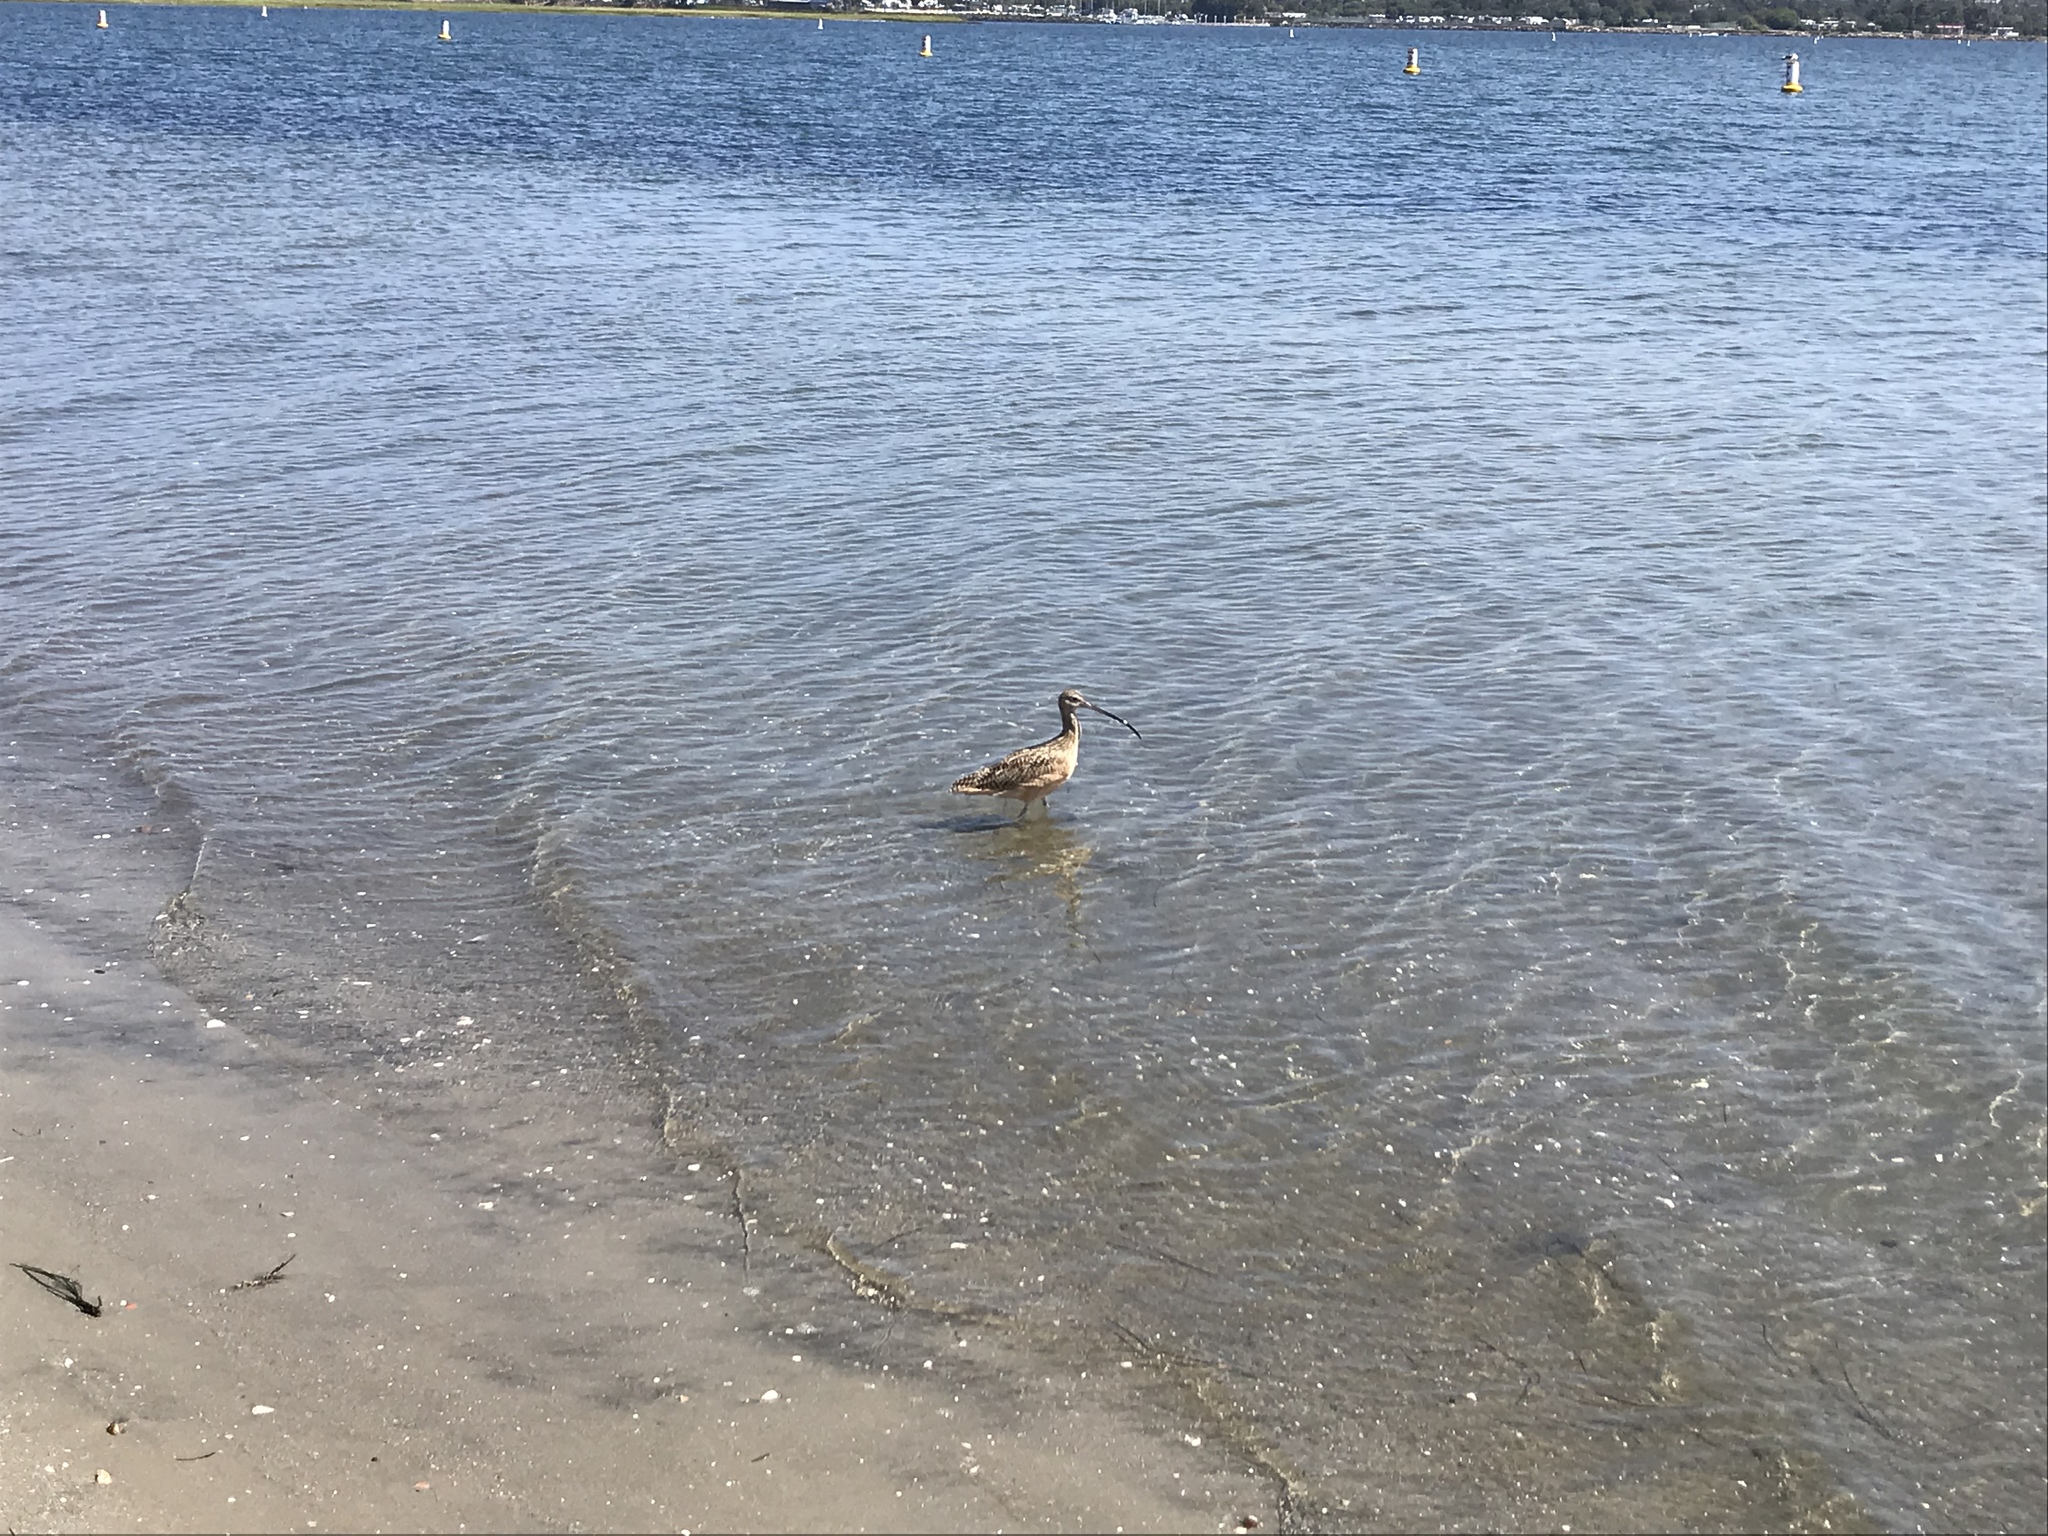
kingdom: Animalia
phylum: Chordata
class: Aves
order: Charadriiformes
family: Scolopacidae
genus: Numenius
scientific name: Numenius americanus
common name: Long-billed curlew
